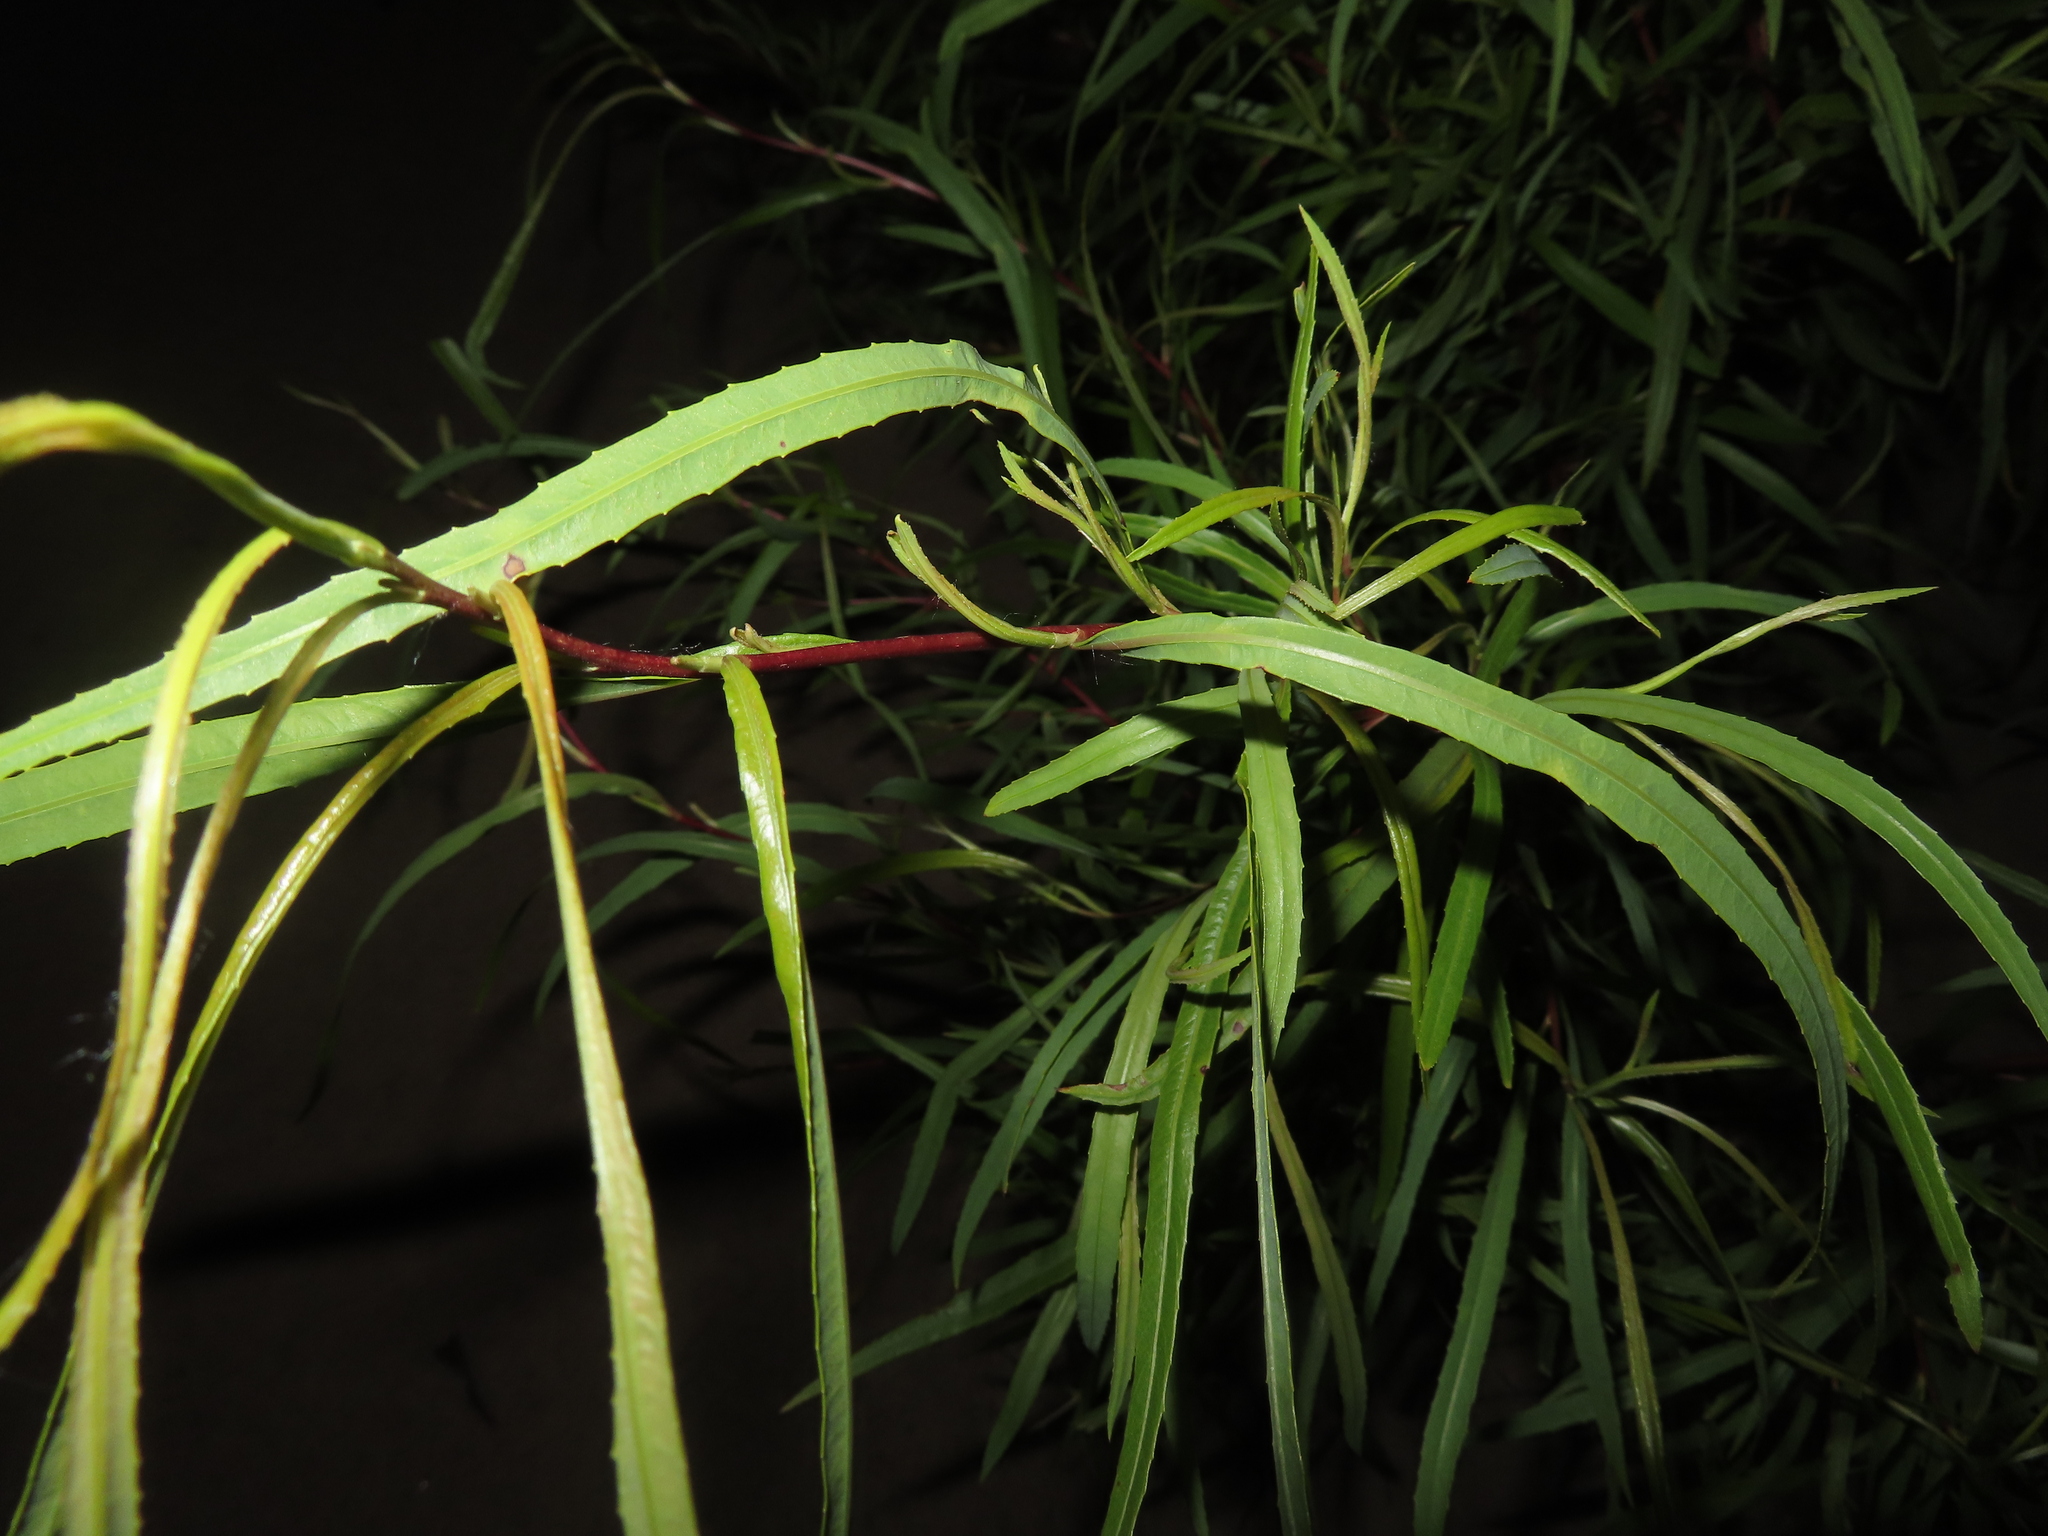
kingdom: Plantae
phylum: Tracheophyta
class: Magnoliopsida
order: Malpighiales
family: Salicaceae
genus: Salix
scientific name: Salix interior
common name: Sandbar willow
